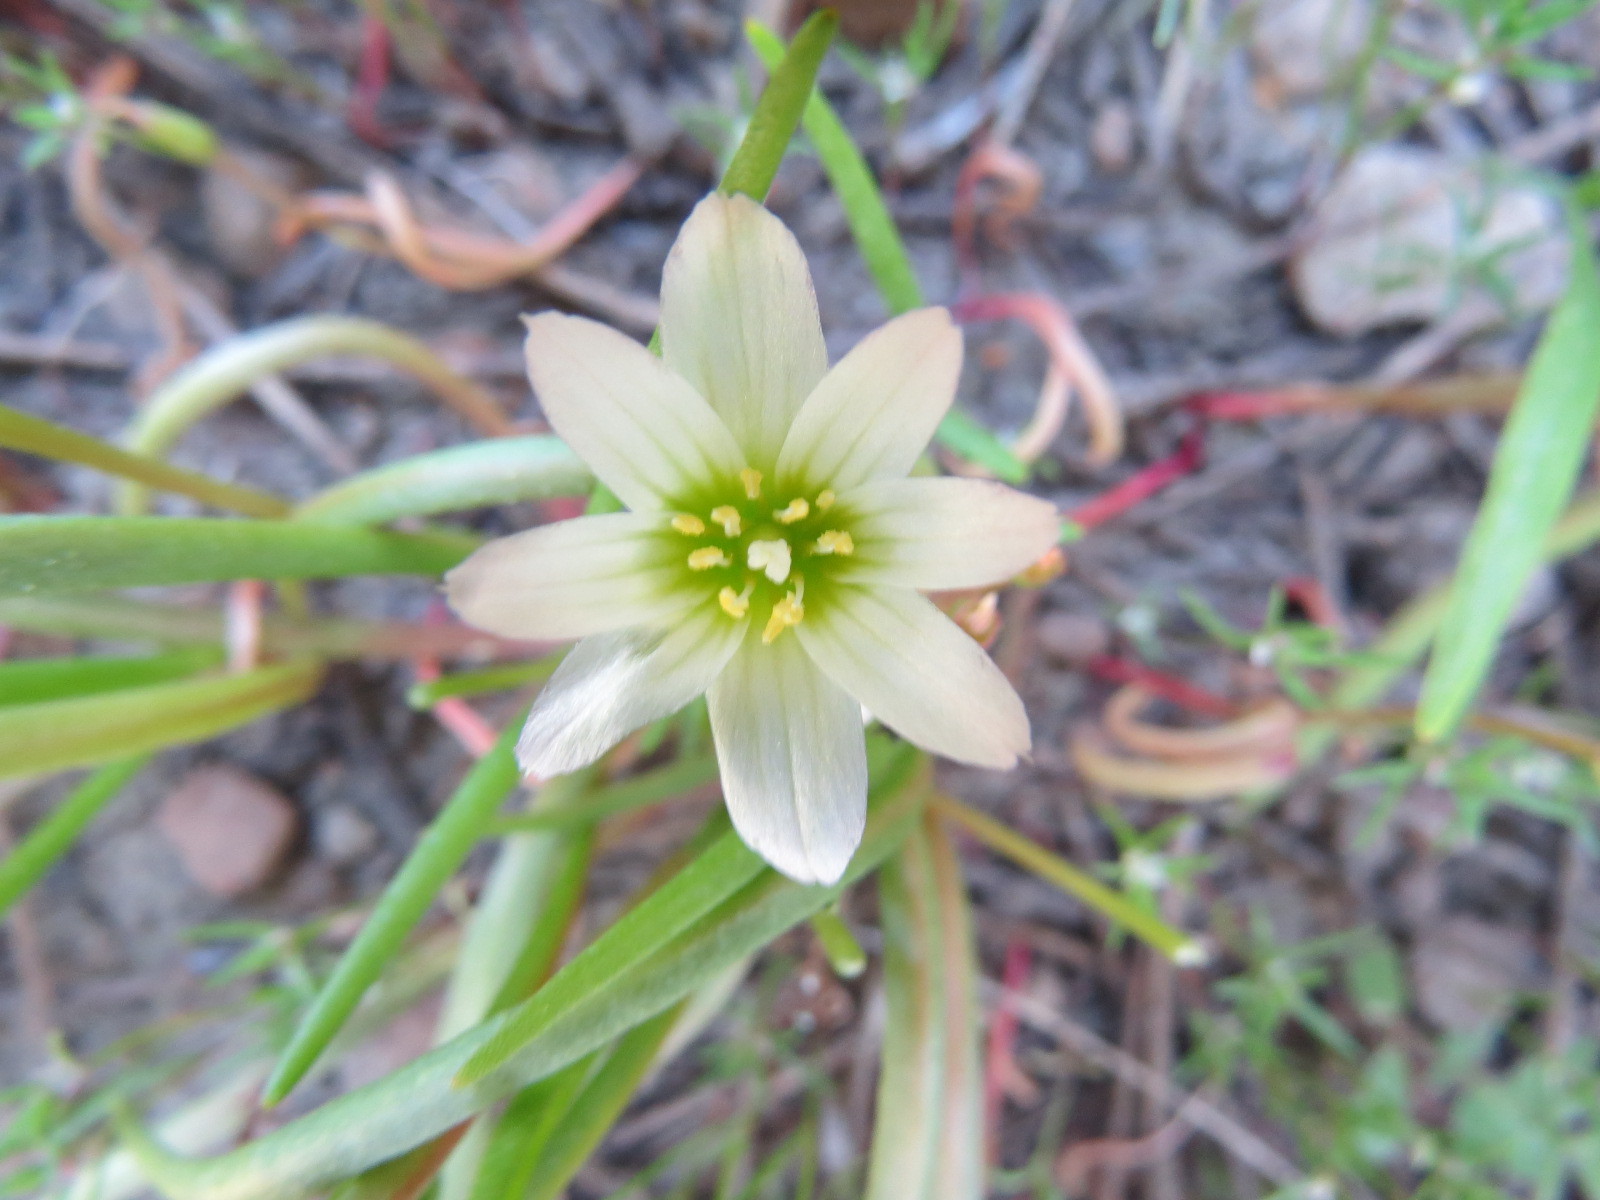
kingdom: Plantae
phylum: Tracheophyta
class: Magnoliopsida
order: Caryophyllales
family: Montiaceae
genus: Lewisia
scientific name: Lewisia nevadensis
